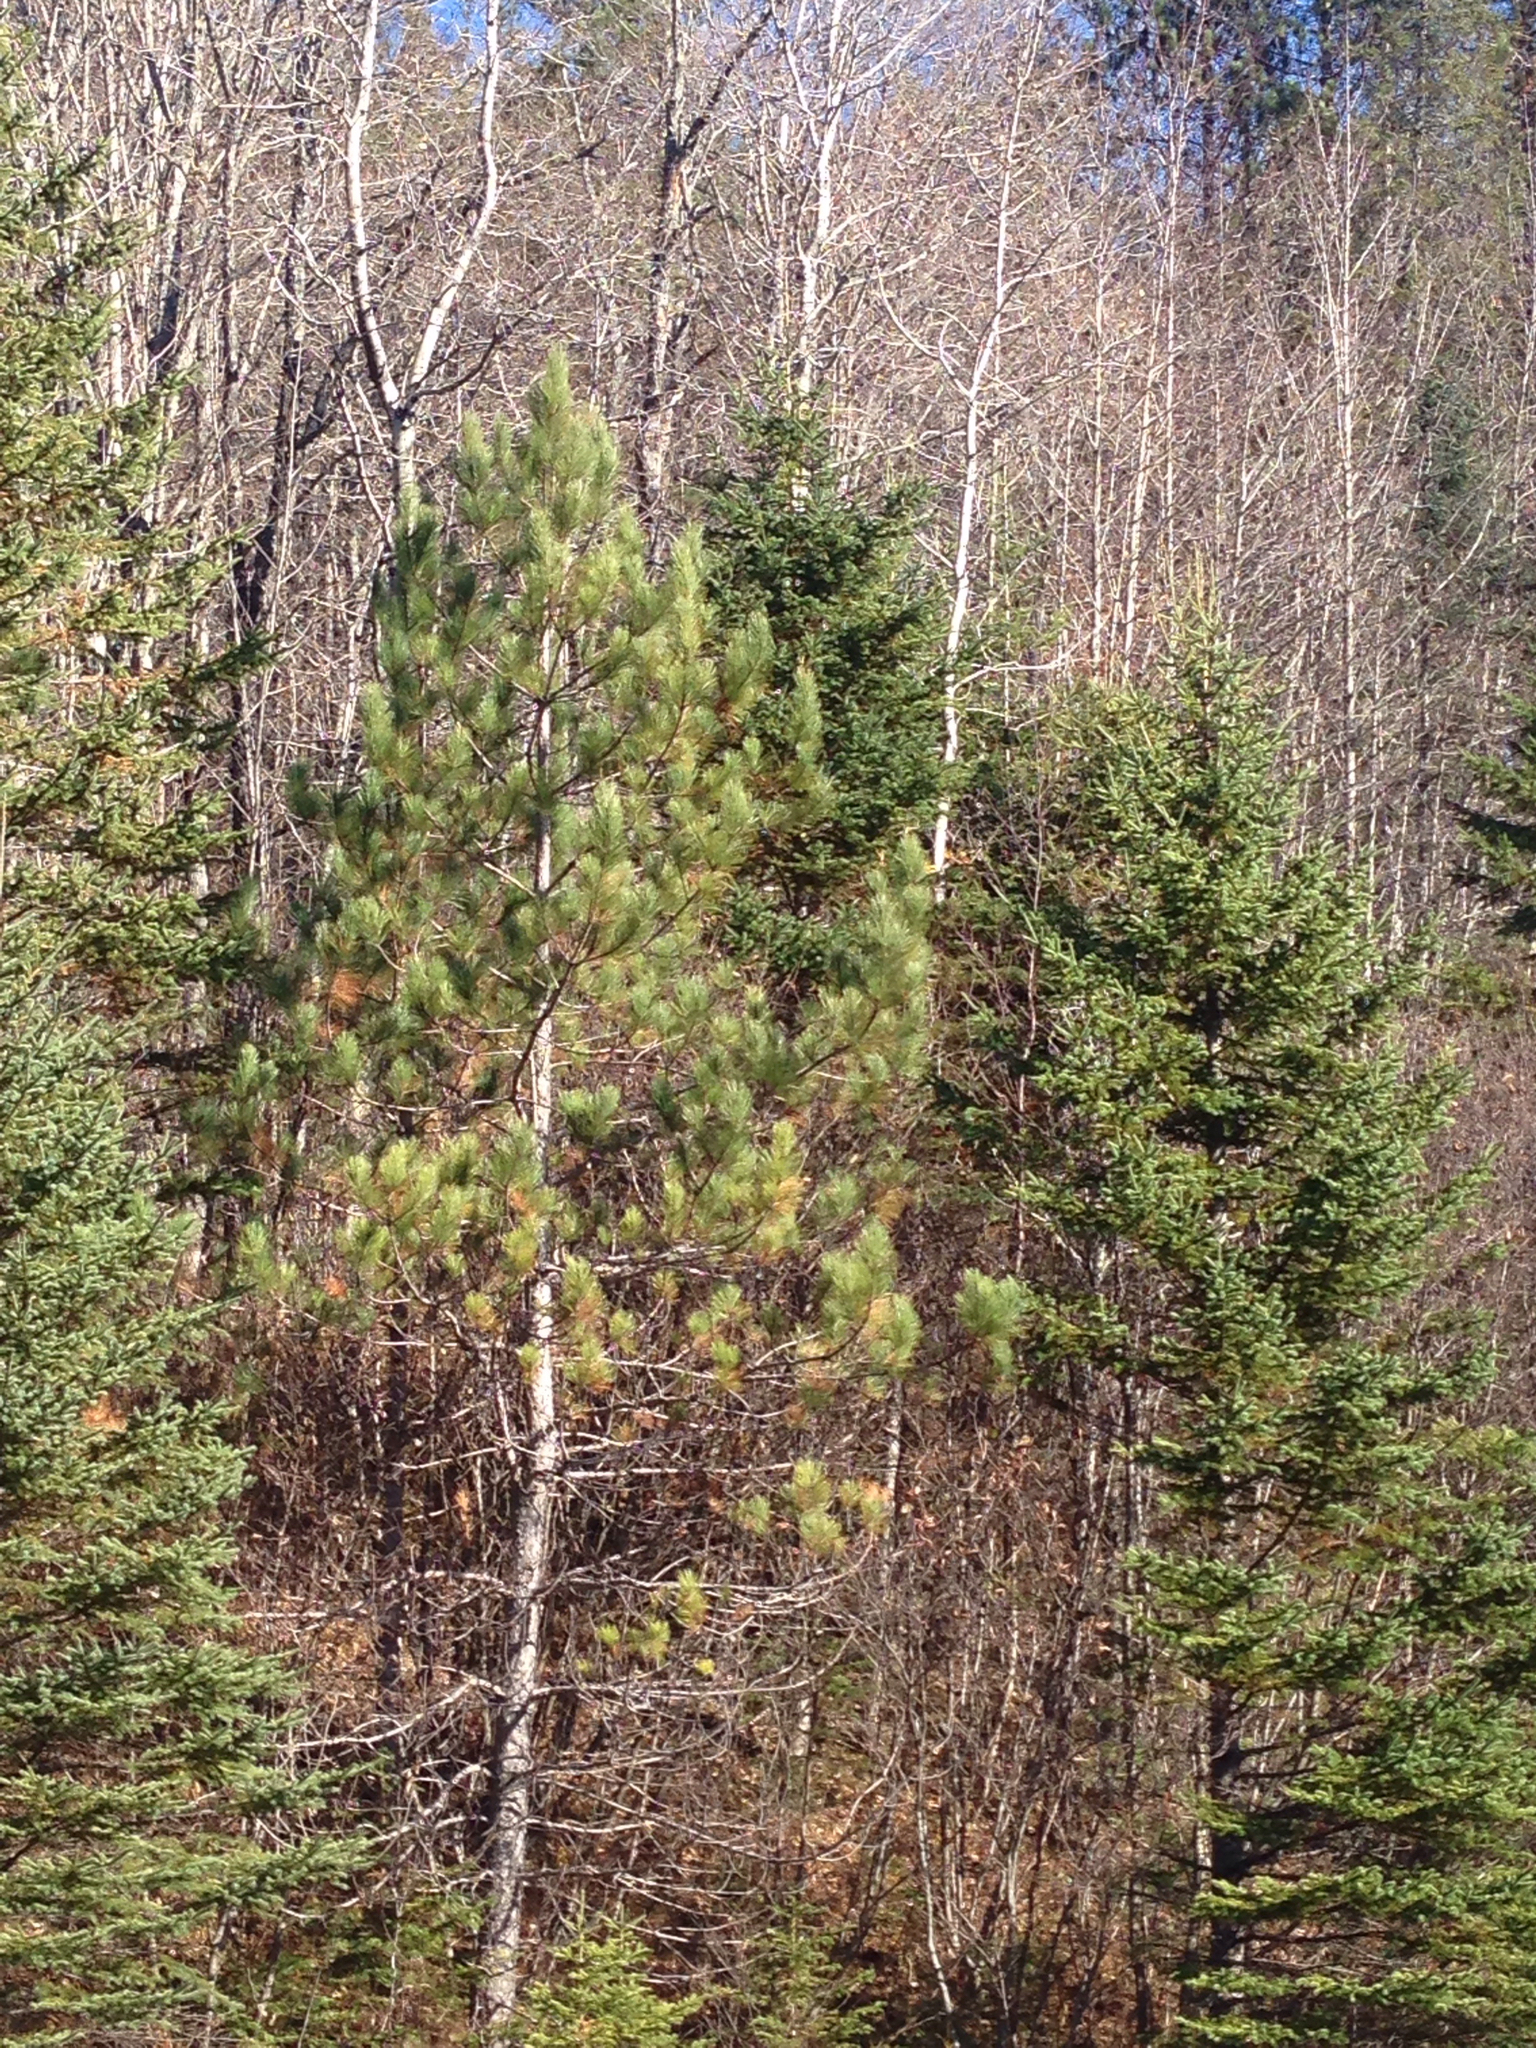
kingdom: Plantae
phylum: Tracheophyta
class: Pinopsida
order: Pinales
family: Pinaceae
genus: Pinus
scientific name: Pinus resinosa
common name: Norway pine
